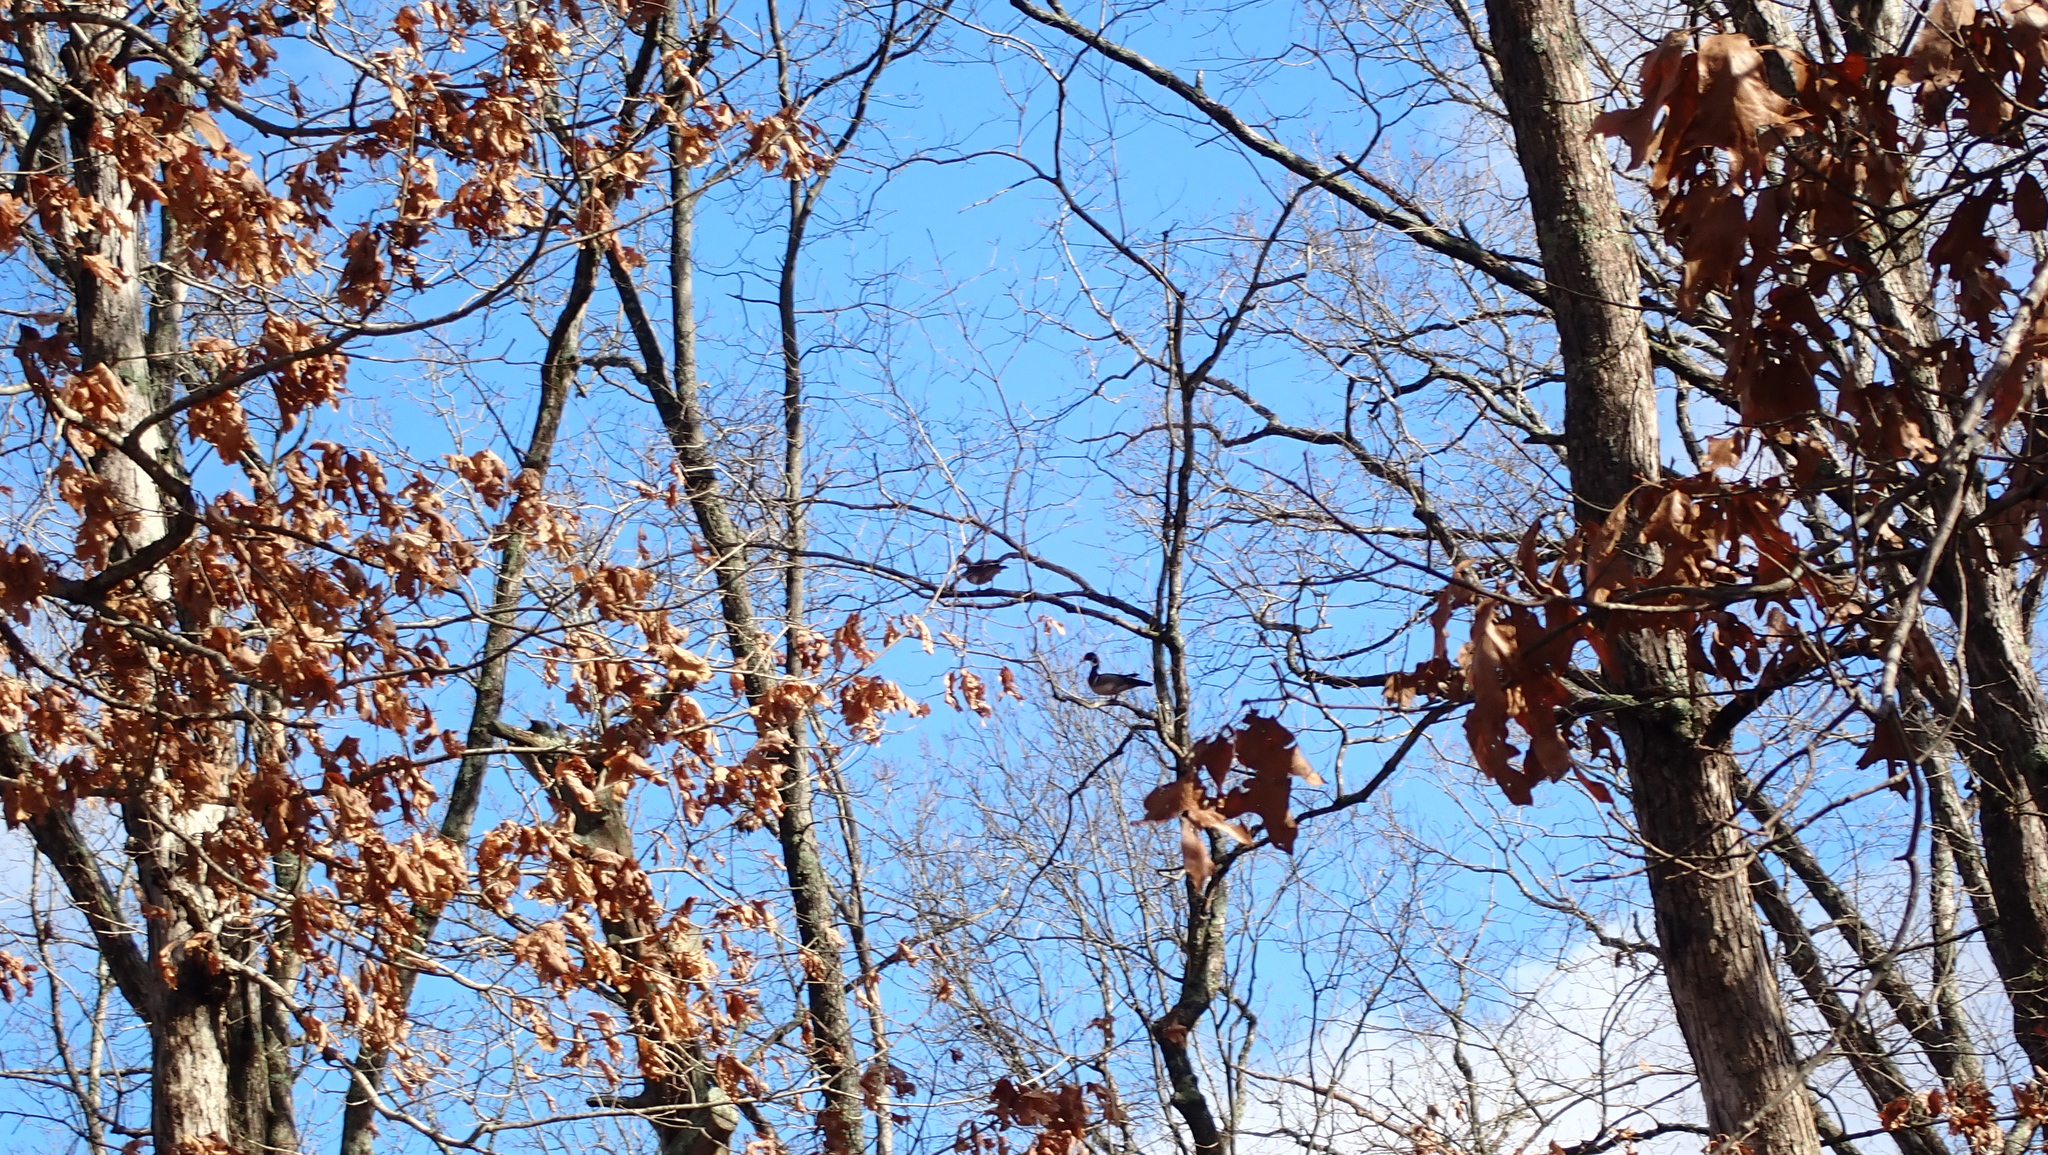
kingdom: Animalia
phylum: Chordata
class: Aves
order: Anseriformes
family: Anatidae
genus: Aix
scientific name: Aix sponsa
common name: Wood duck
